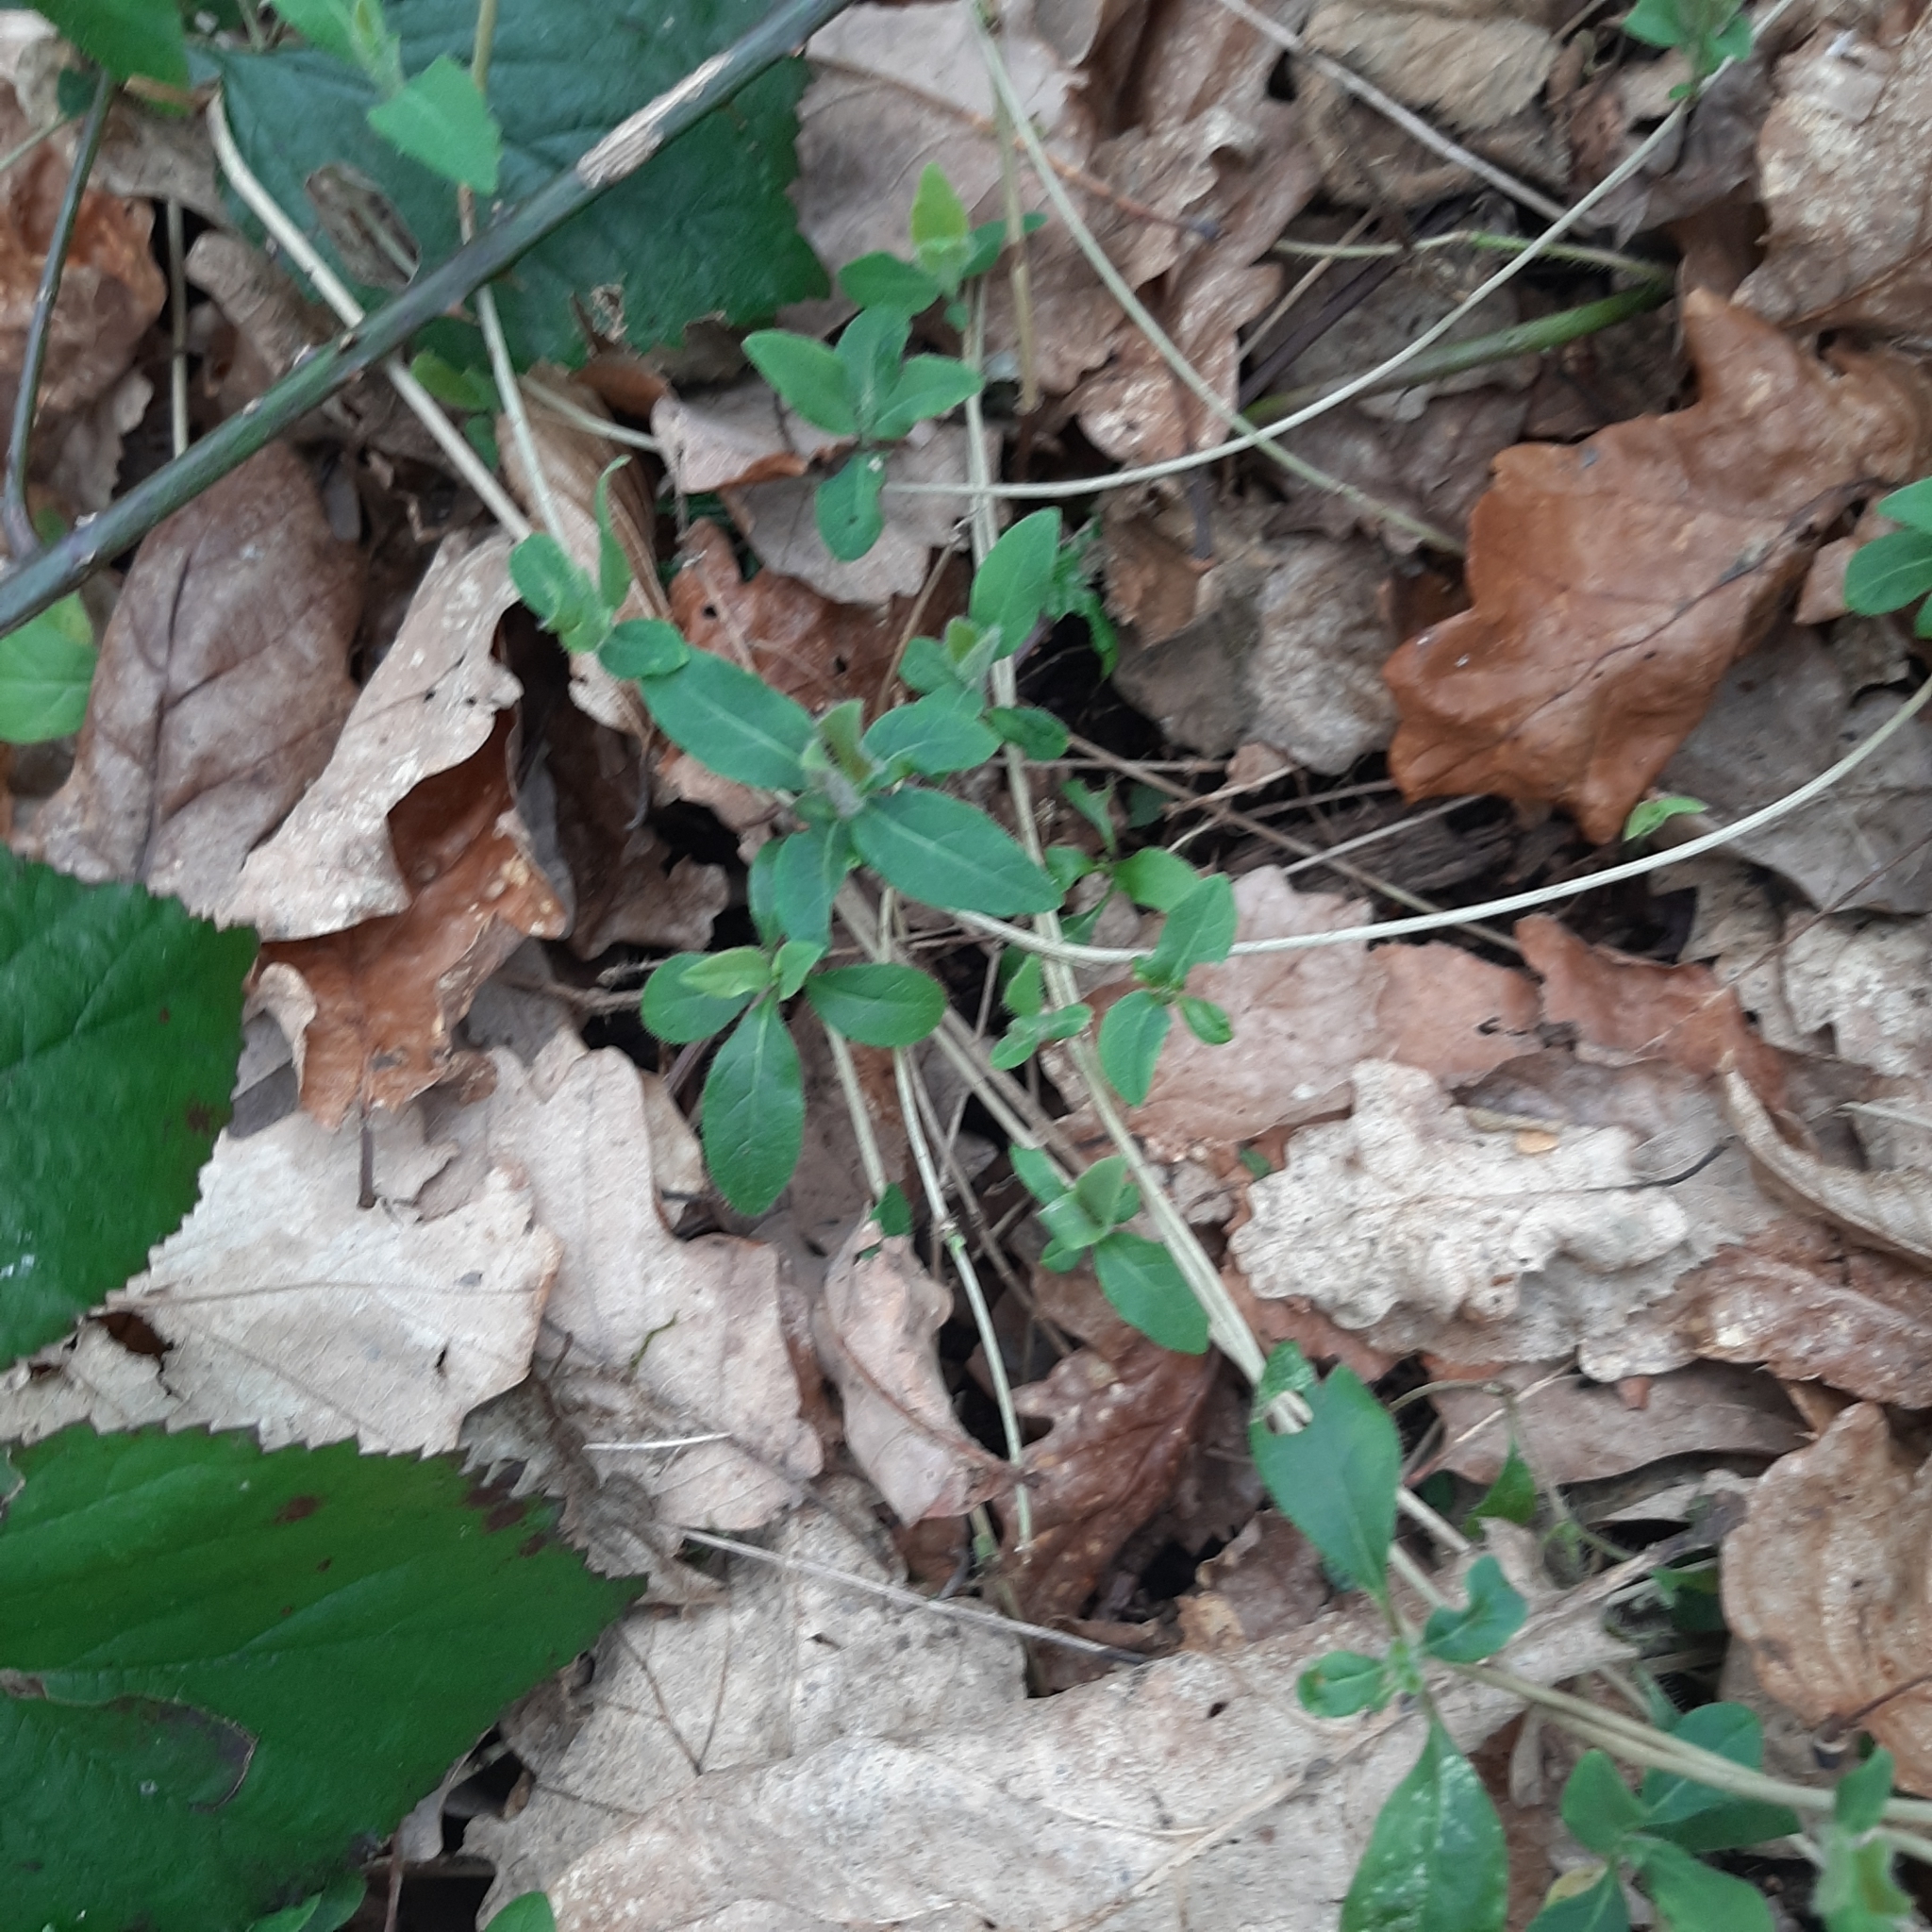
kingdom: Plantae
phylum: Tracheophyta
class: Magnoliopsida
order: Dipsacales
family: Caprifoliaceae
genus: Lonicera
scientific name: Lonicera periclymenum
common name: European honeysuckle
